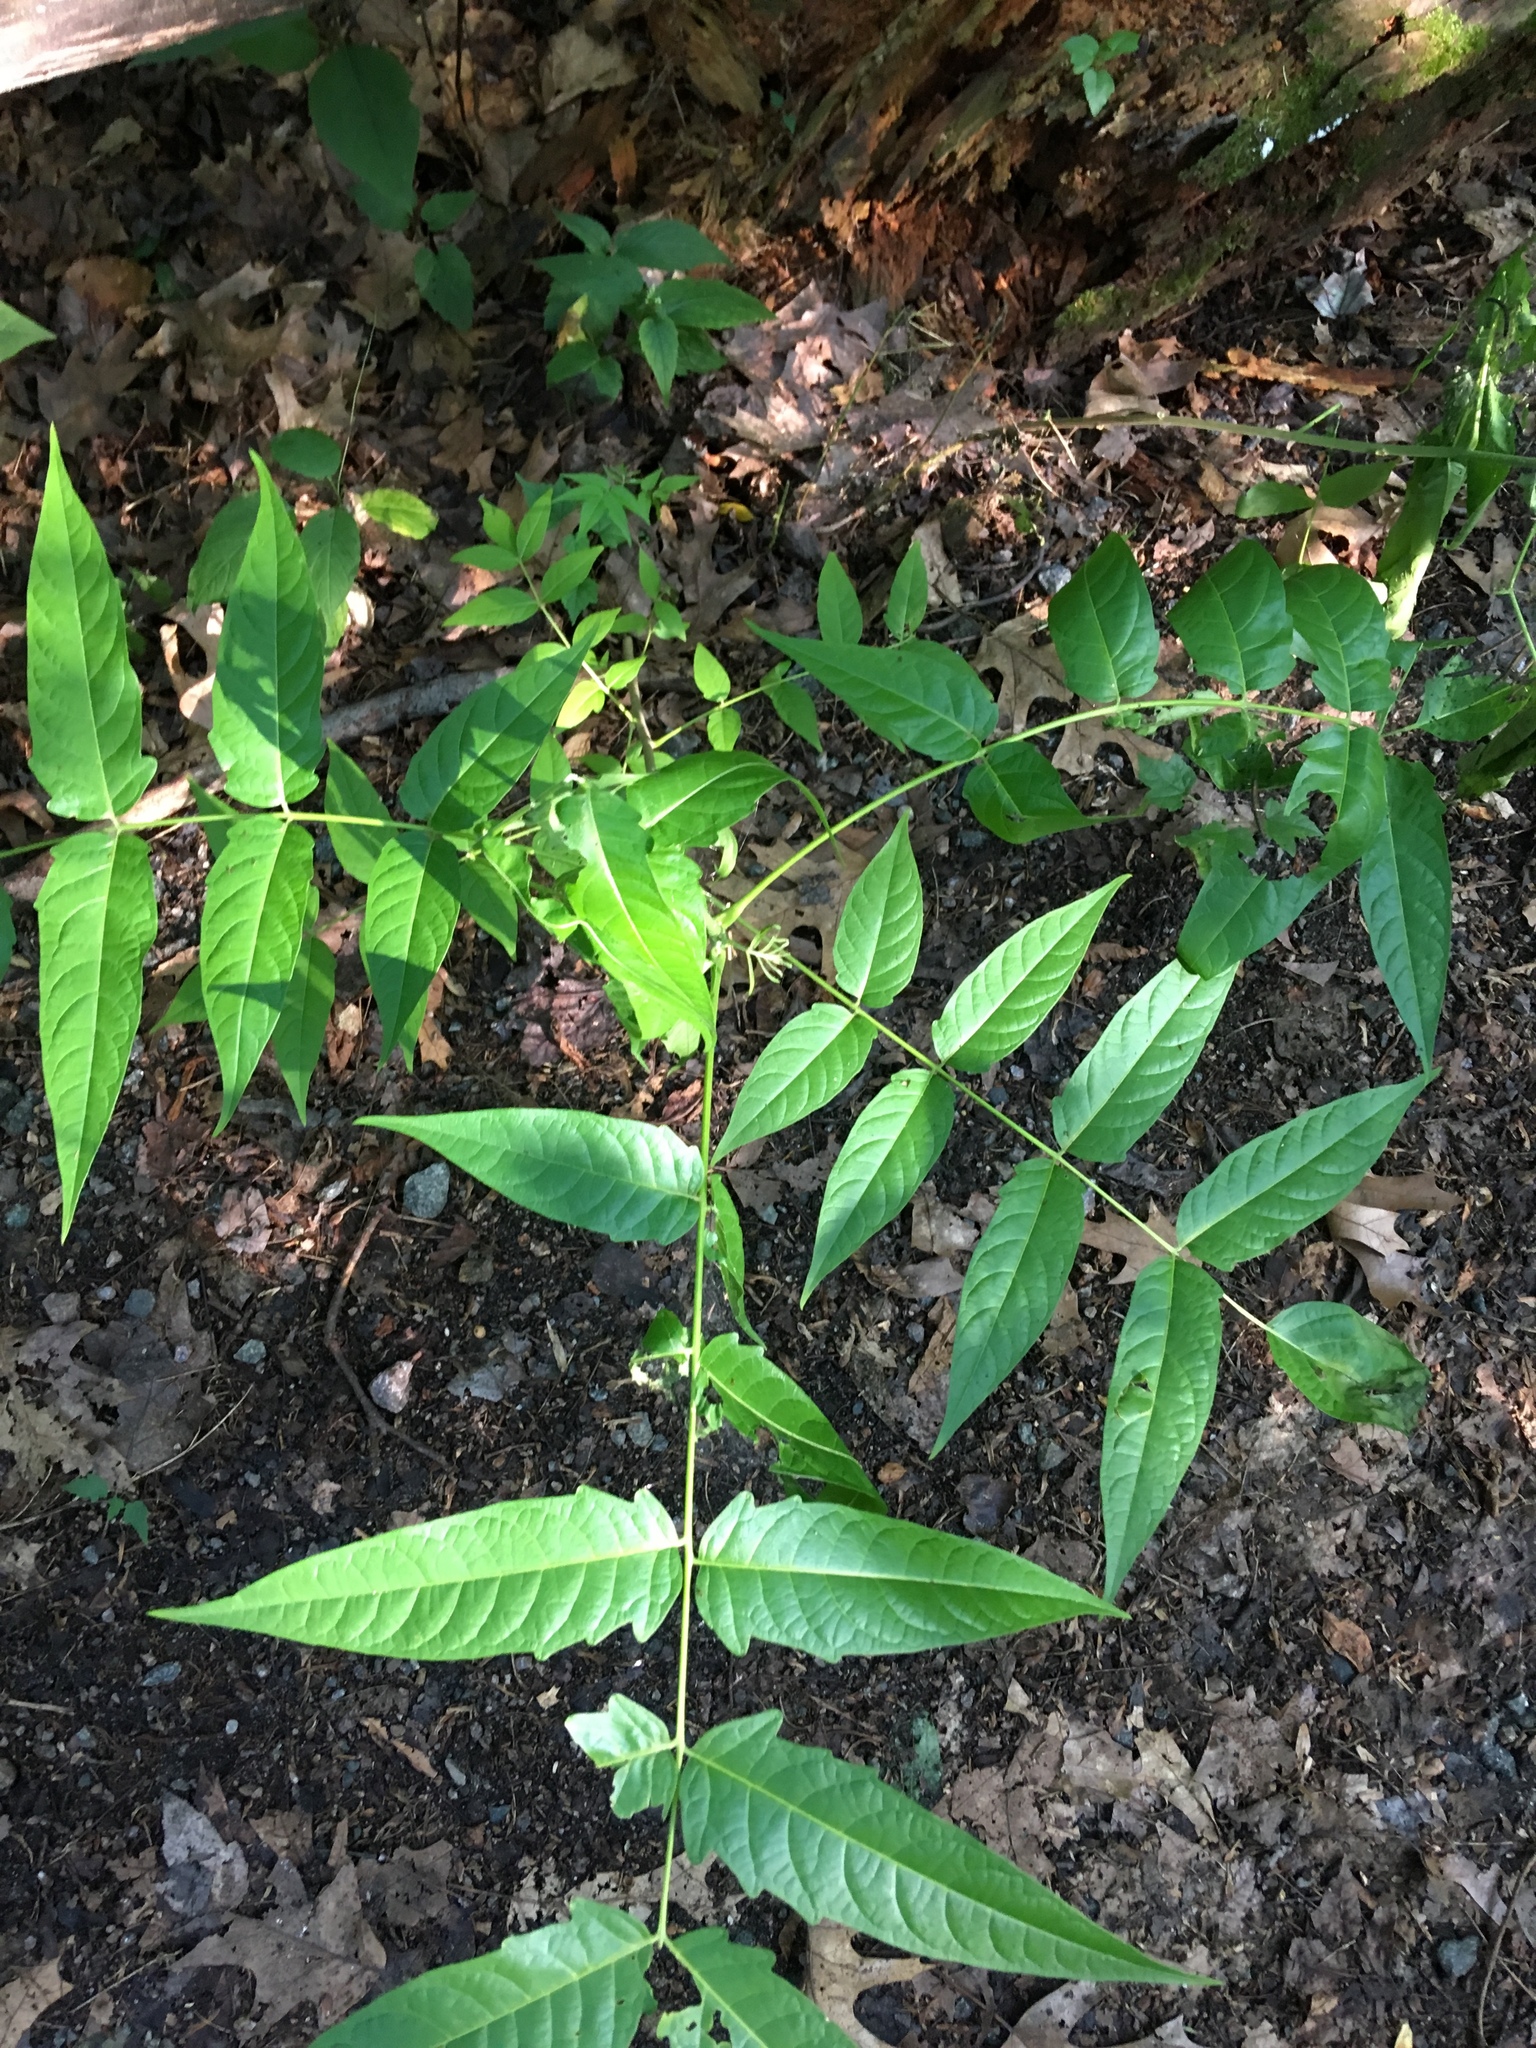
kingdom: Plantae
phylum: Tracheophyta
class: Magnoliopsida
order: Sapindales
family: Simaroubaceae
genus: Ailanthus
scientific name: Ailanthus altissima
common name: Tree-of-heaven
